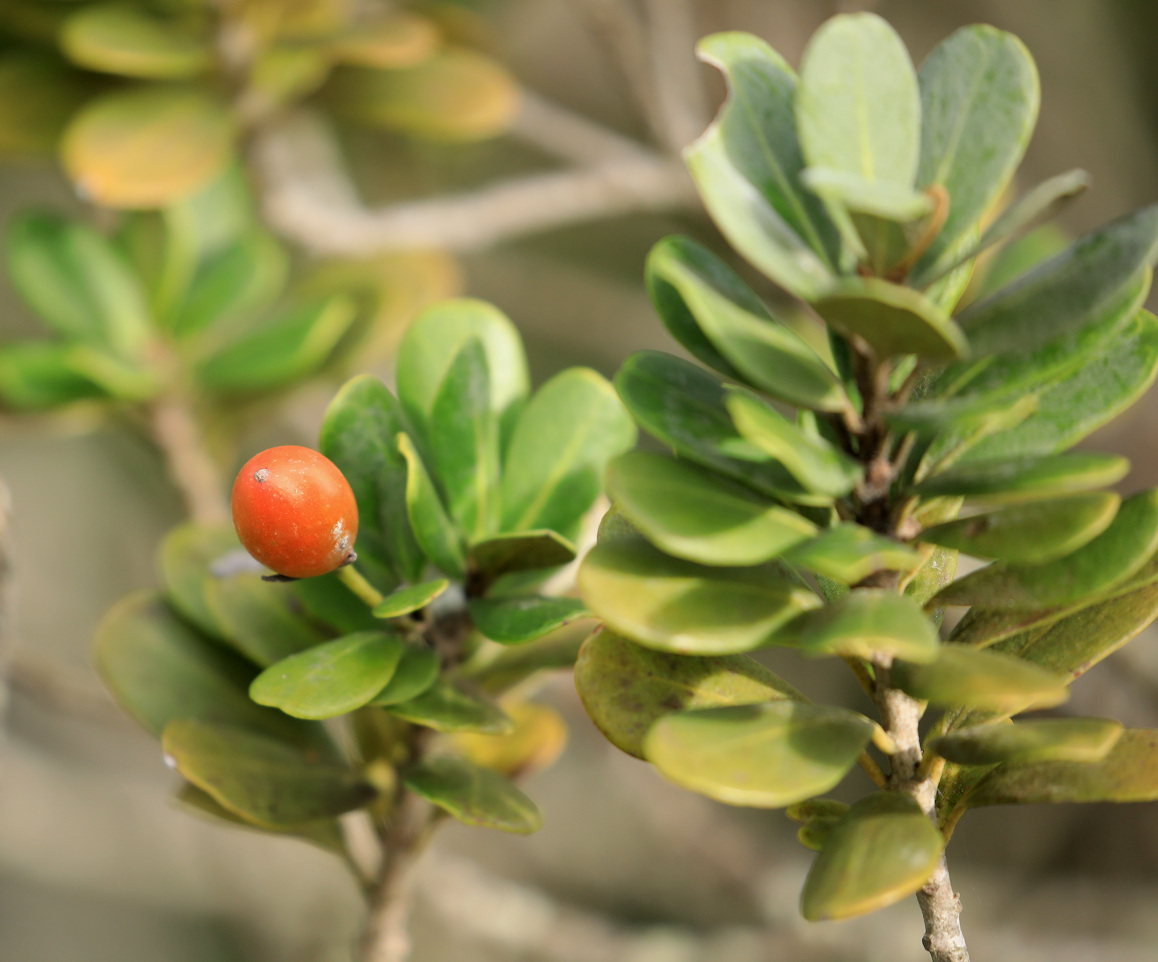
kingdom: Plantae
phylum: Tracheophyta
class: Magnoliopsida
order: Ericales
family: Sapotaceae
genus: Mimusops
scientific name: Mimusops caffra
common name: Coastal red milkwood
